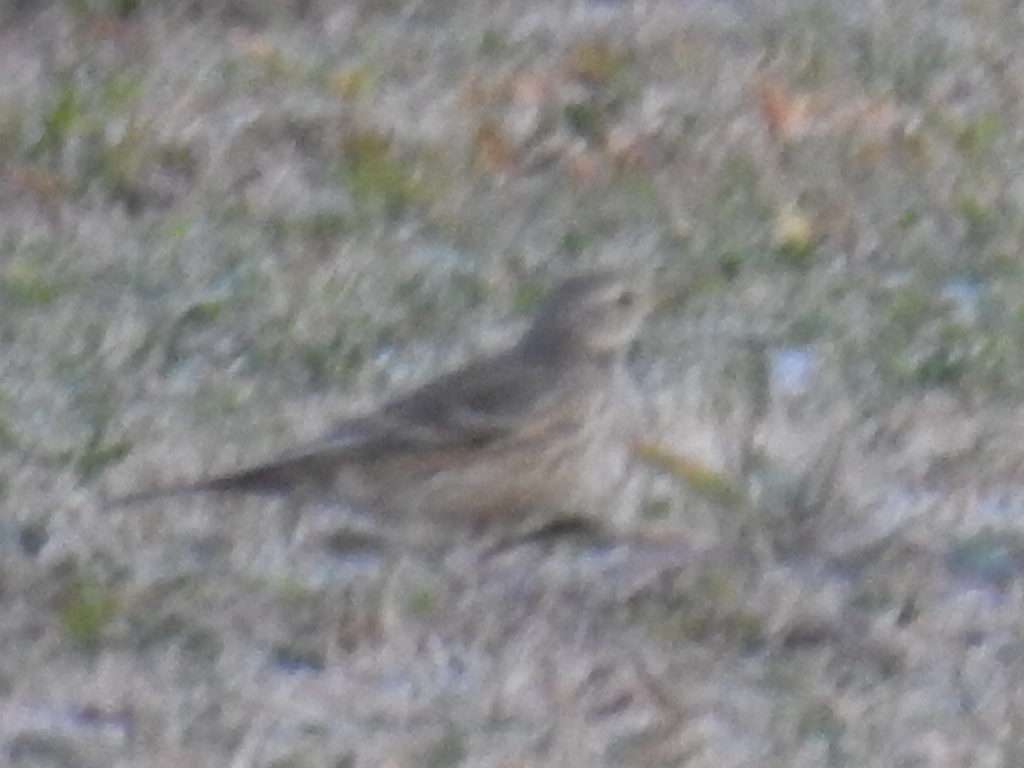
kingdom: Animalia
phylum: Chordata
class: Aves
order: Passeriformes
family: Motacillidae
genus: Anthus
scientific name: Anthus rubescens
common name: Buff-bellied pipit
